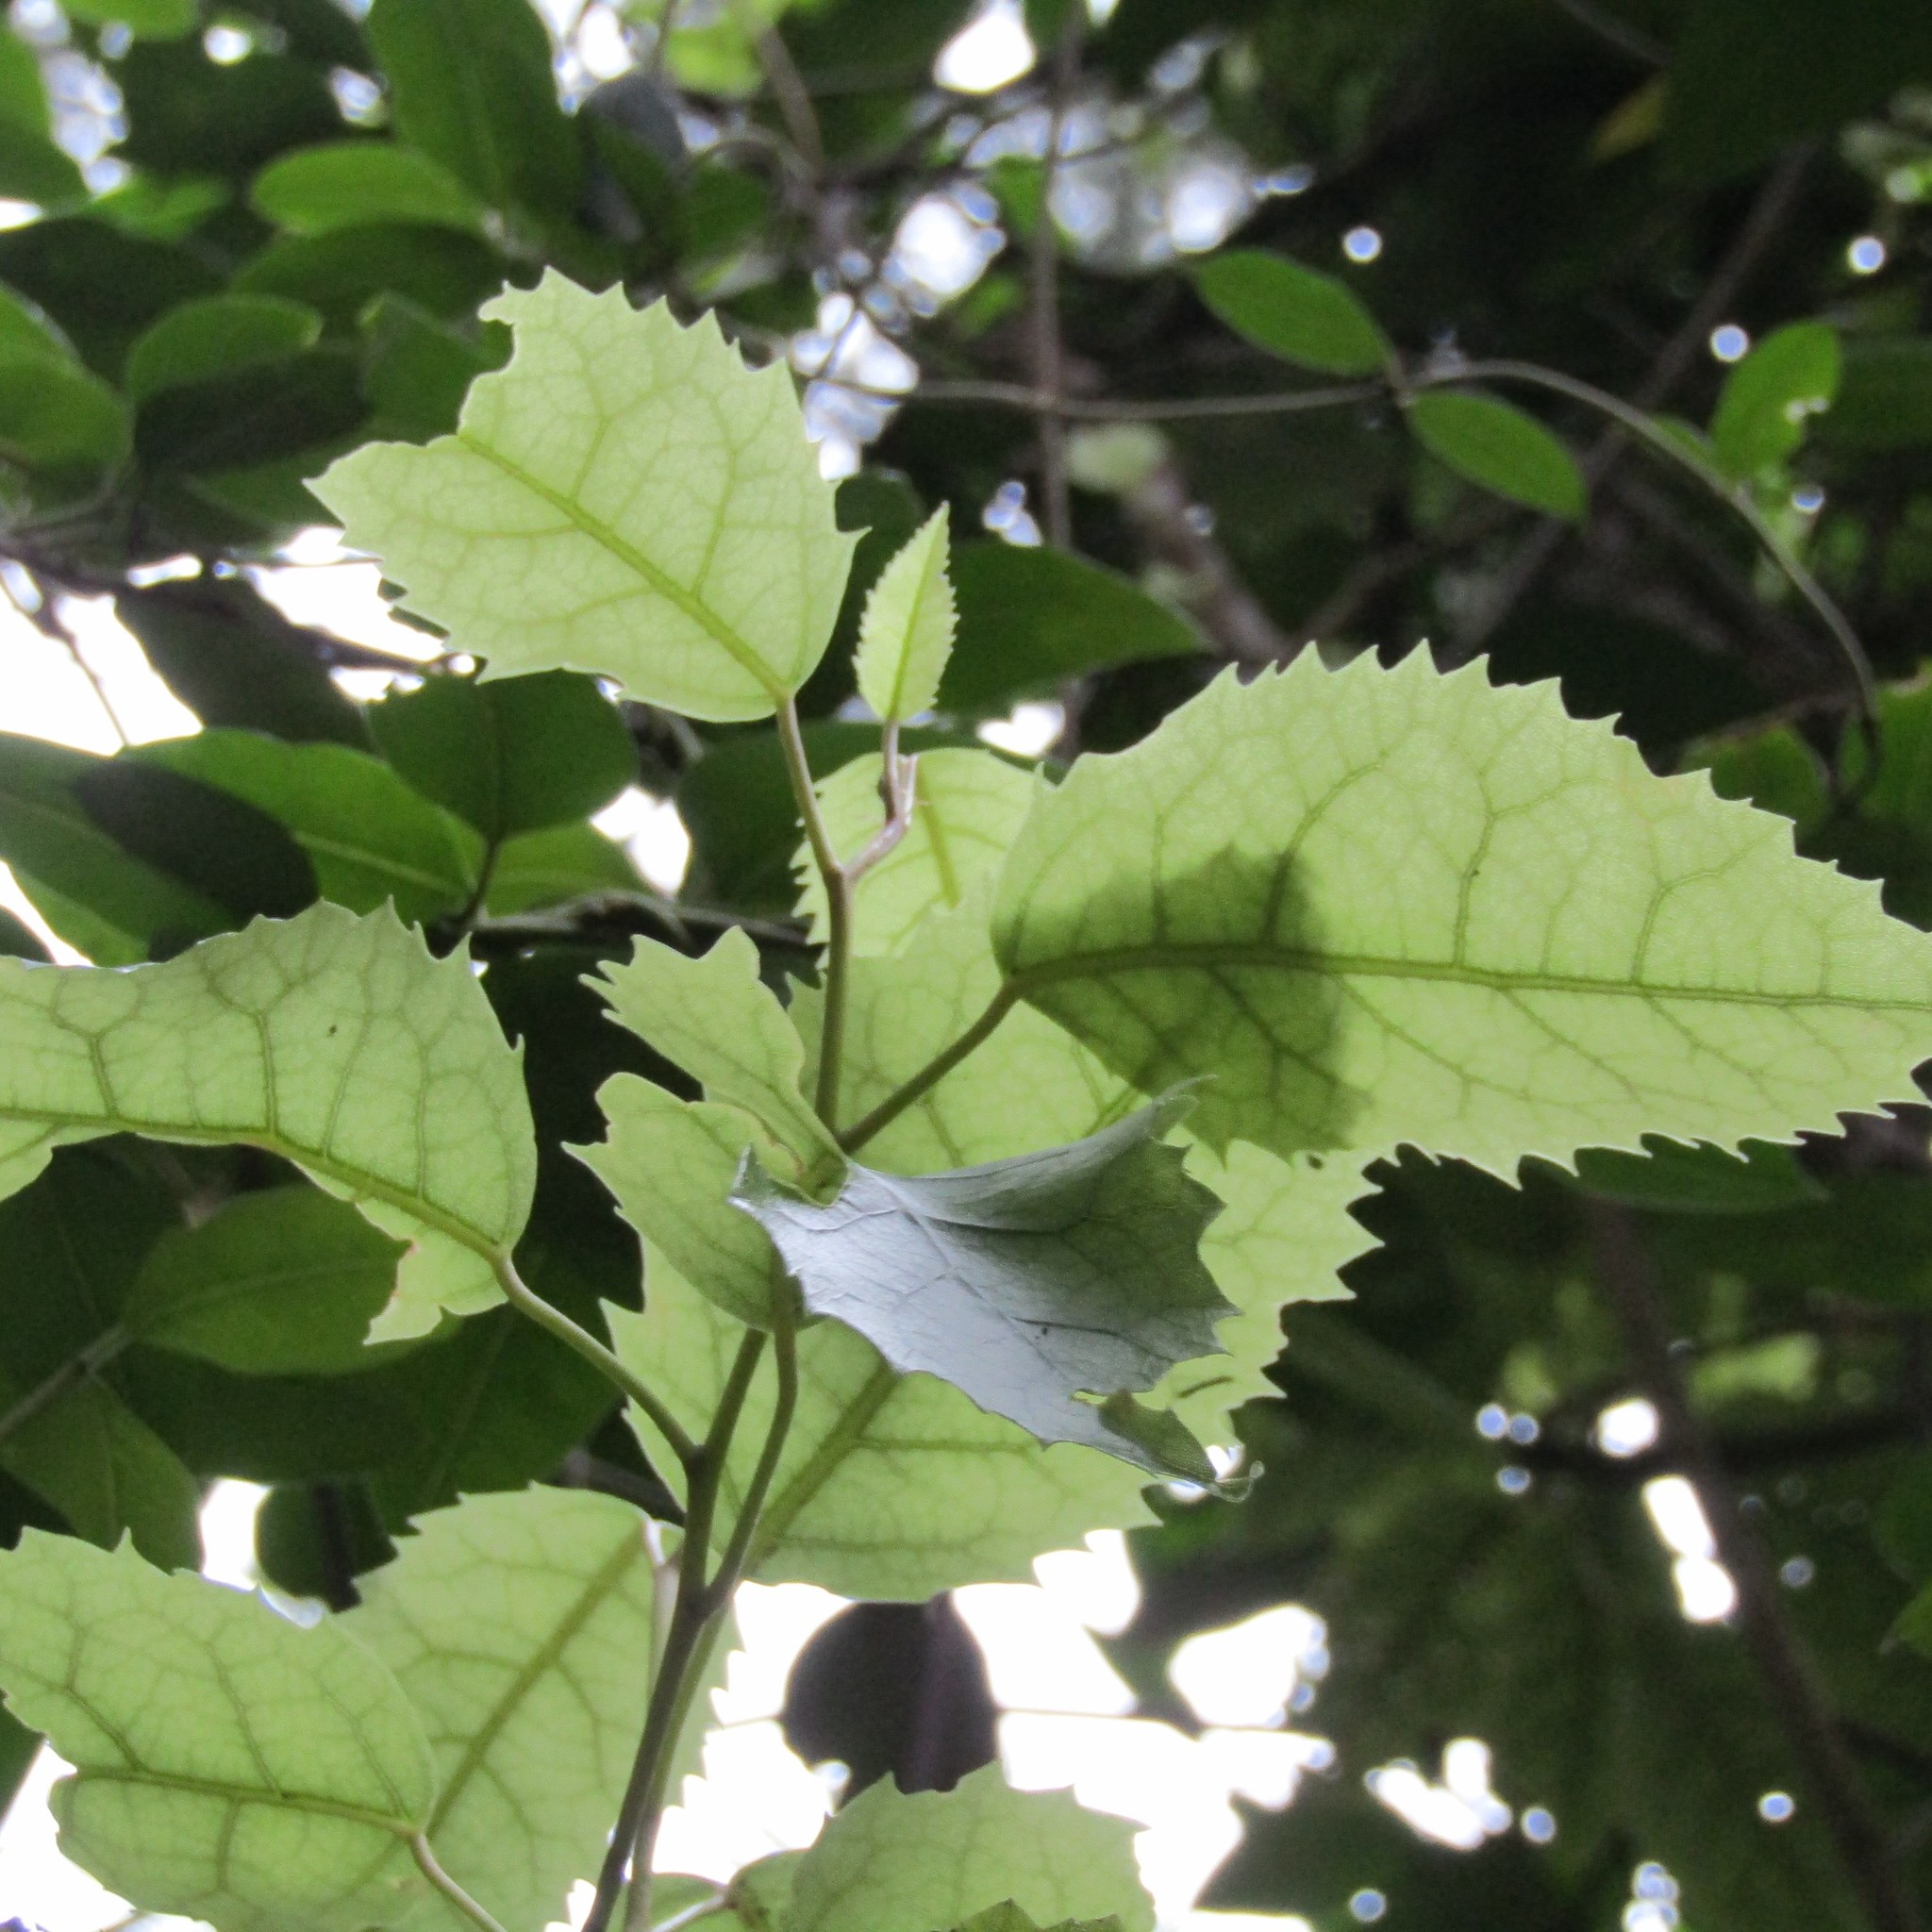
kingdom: Plantae
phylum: Tracheophyta
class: Magnoliopsida
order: Malvales
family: Malvaceae
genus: Hoheria
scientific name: Hoheria populnea
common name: Lacebark
